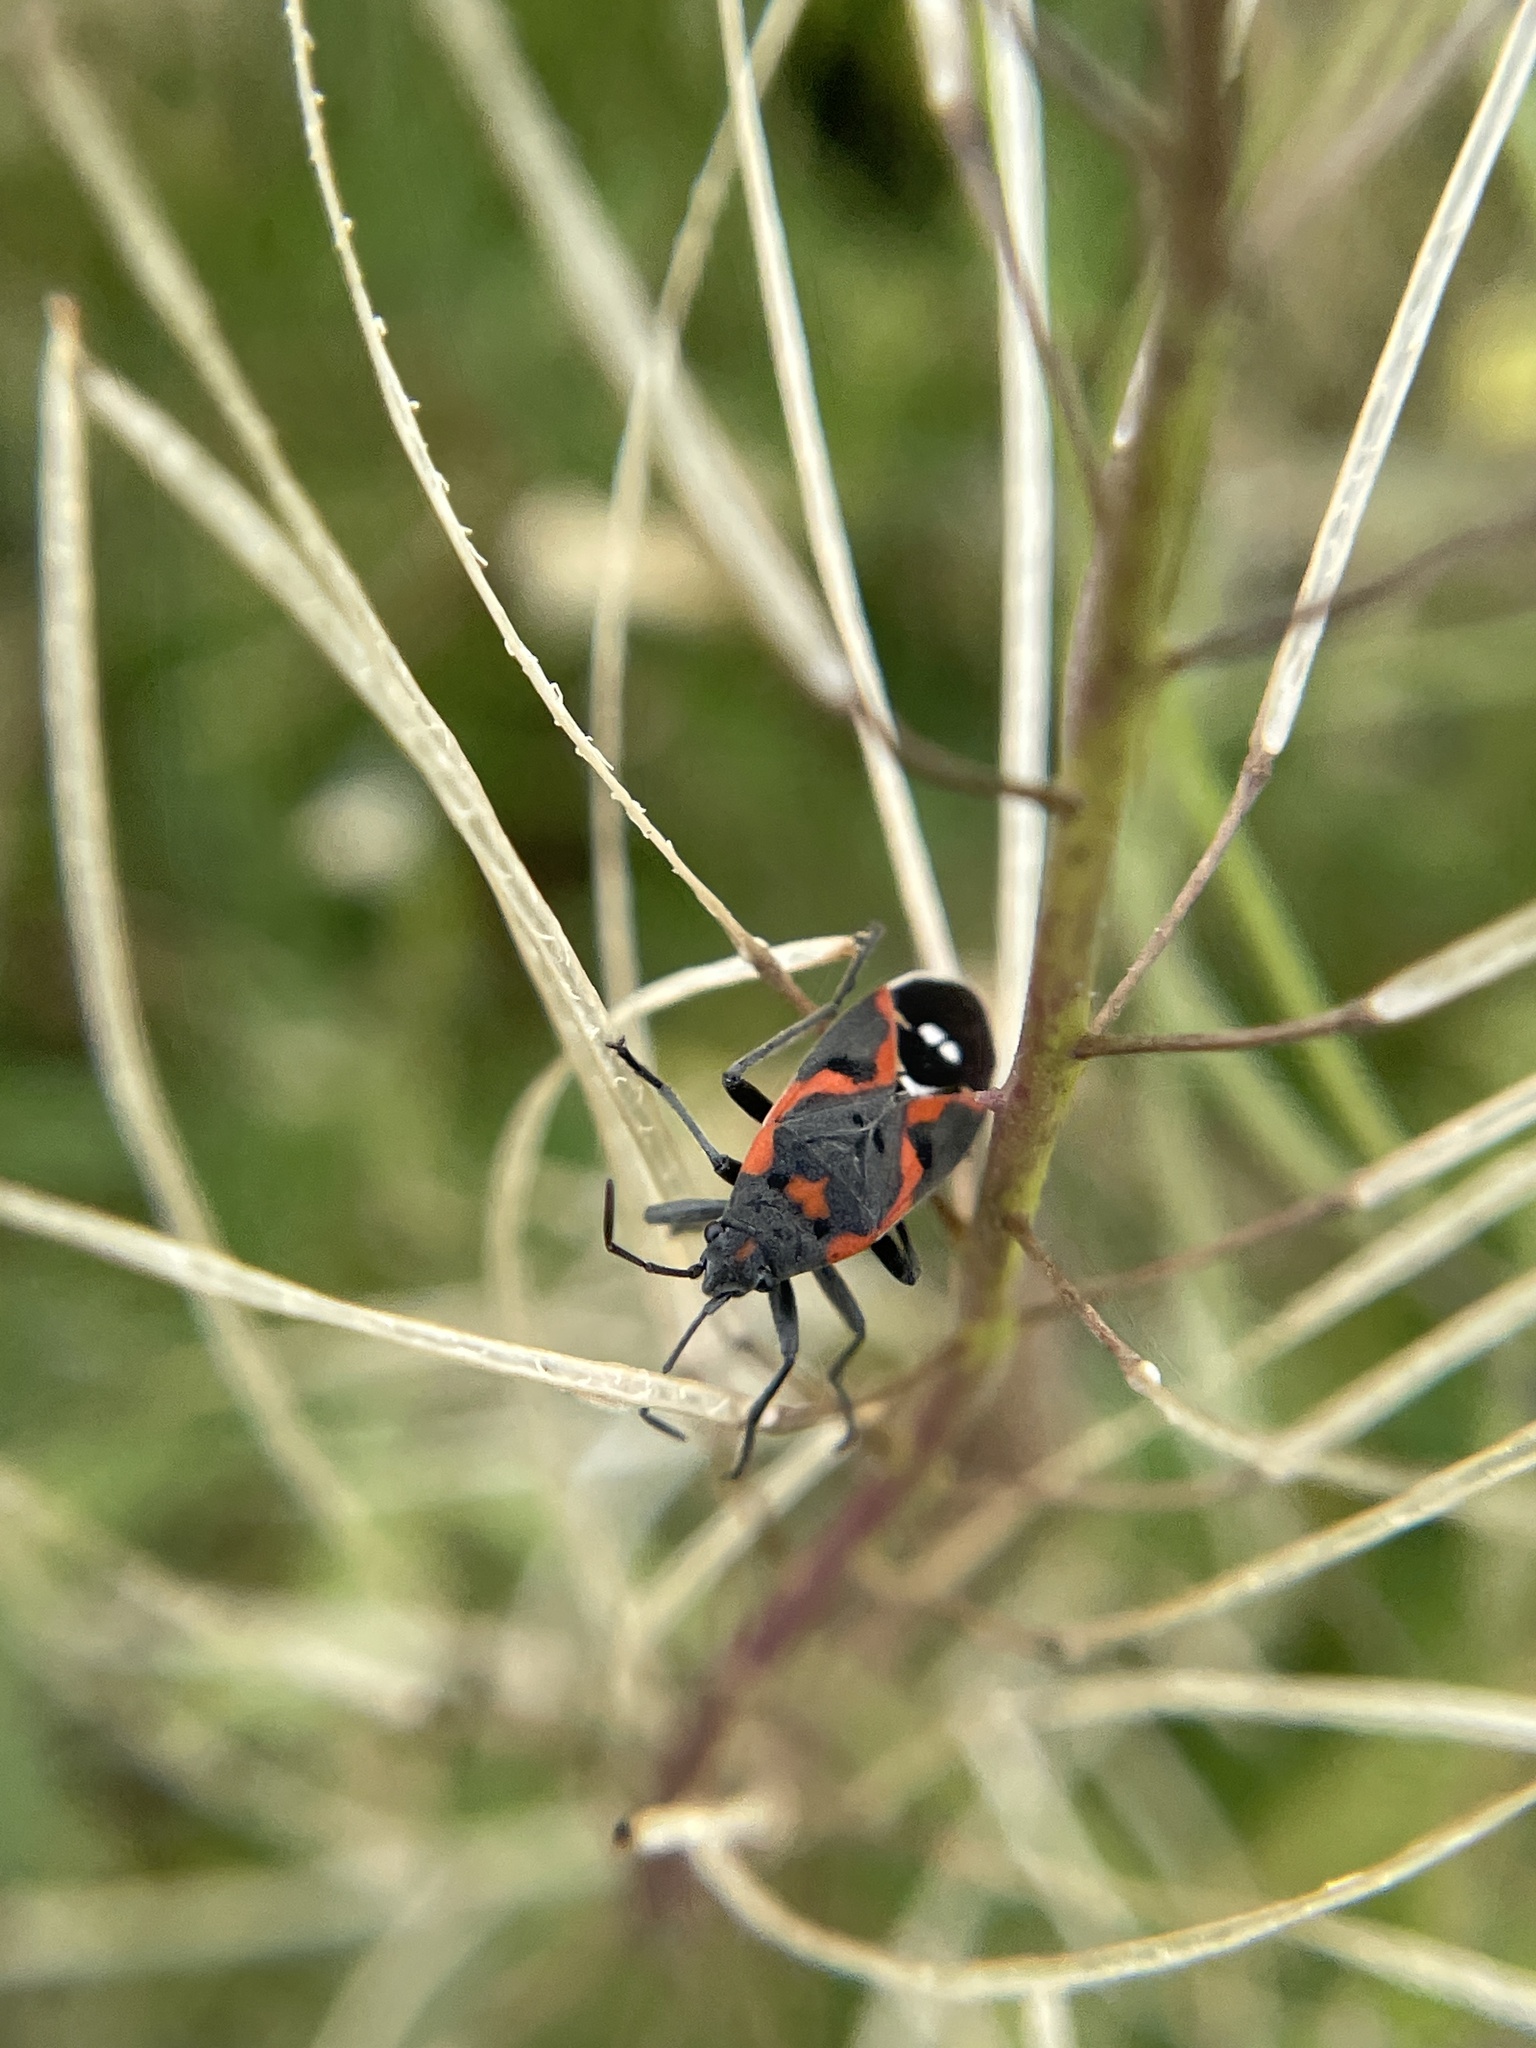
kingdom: Animalia
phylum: Arthropoda
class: Insecta
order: Hemiptera
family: Lygaeidae
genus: Lygaeus
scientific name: Lygaeus kalmii
